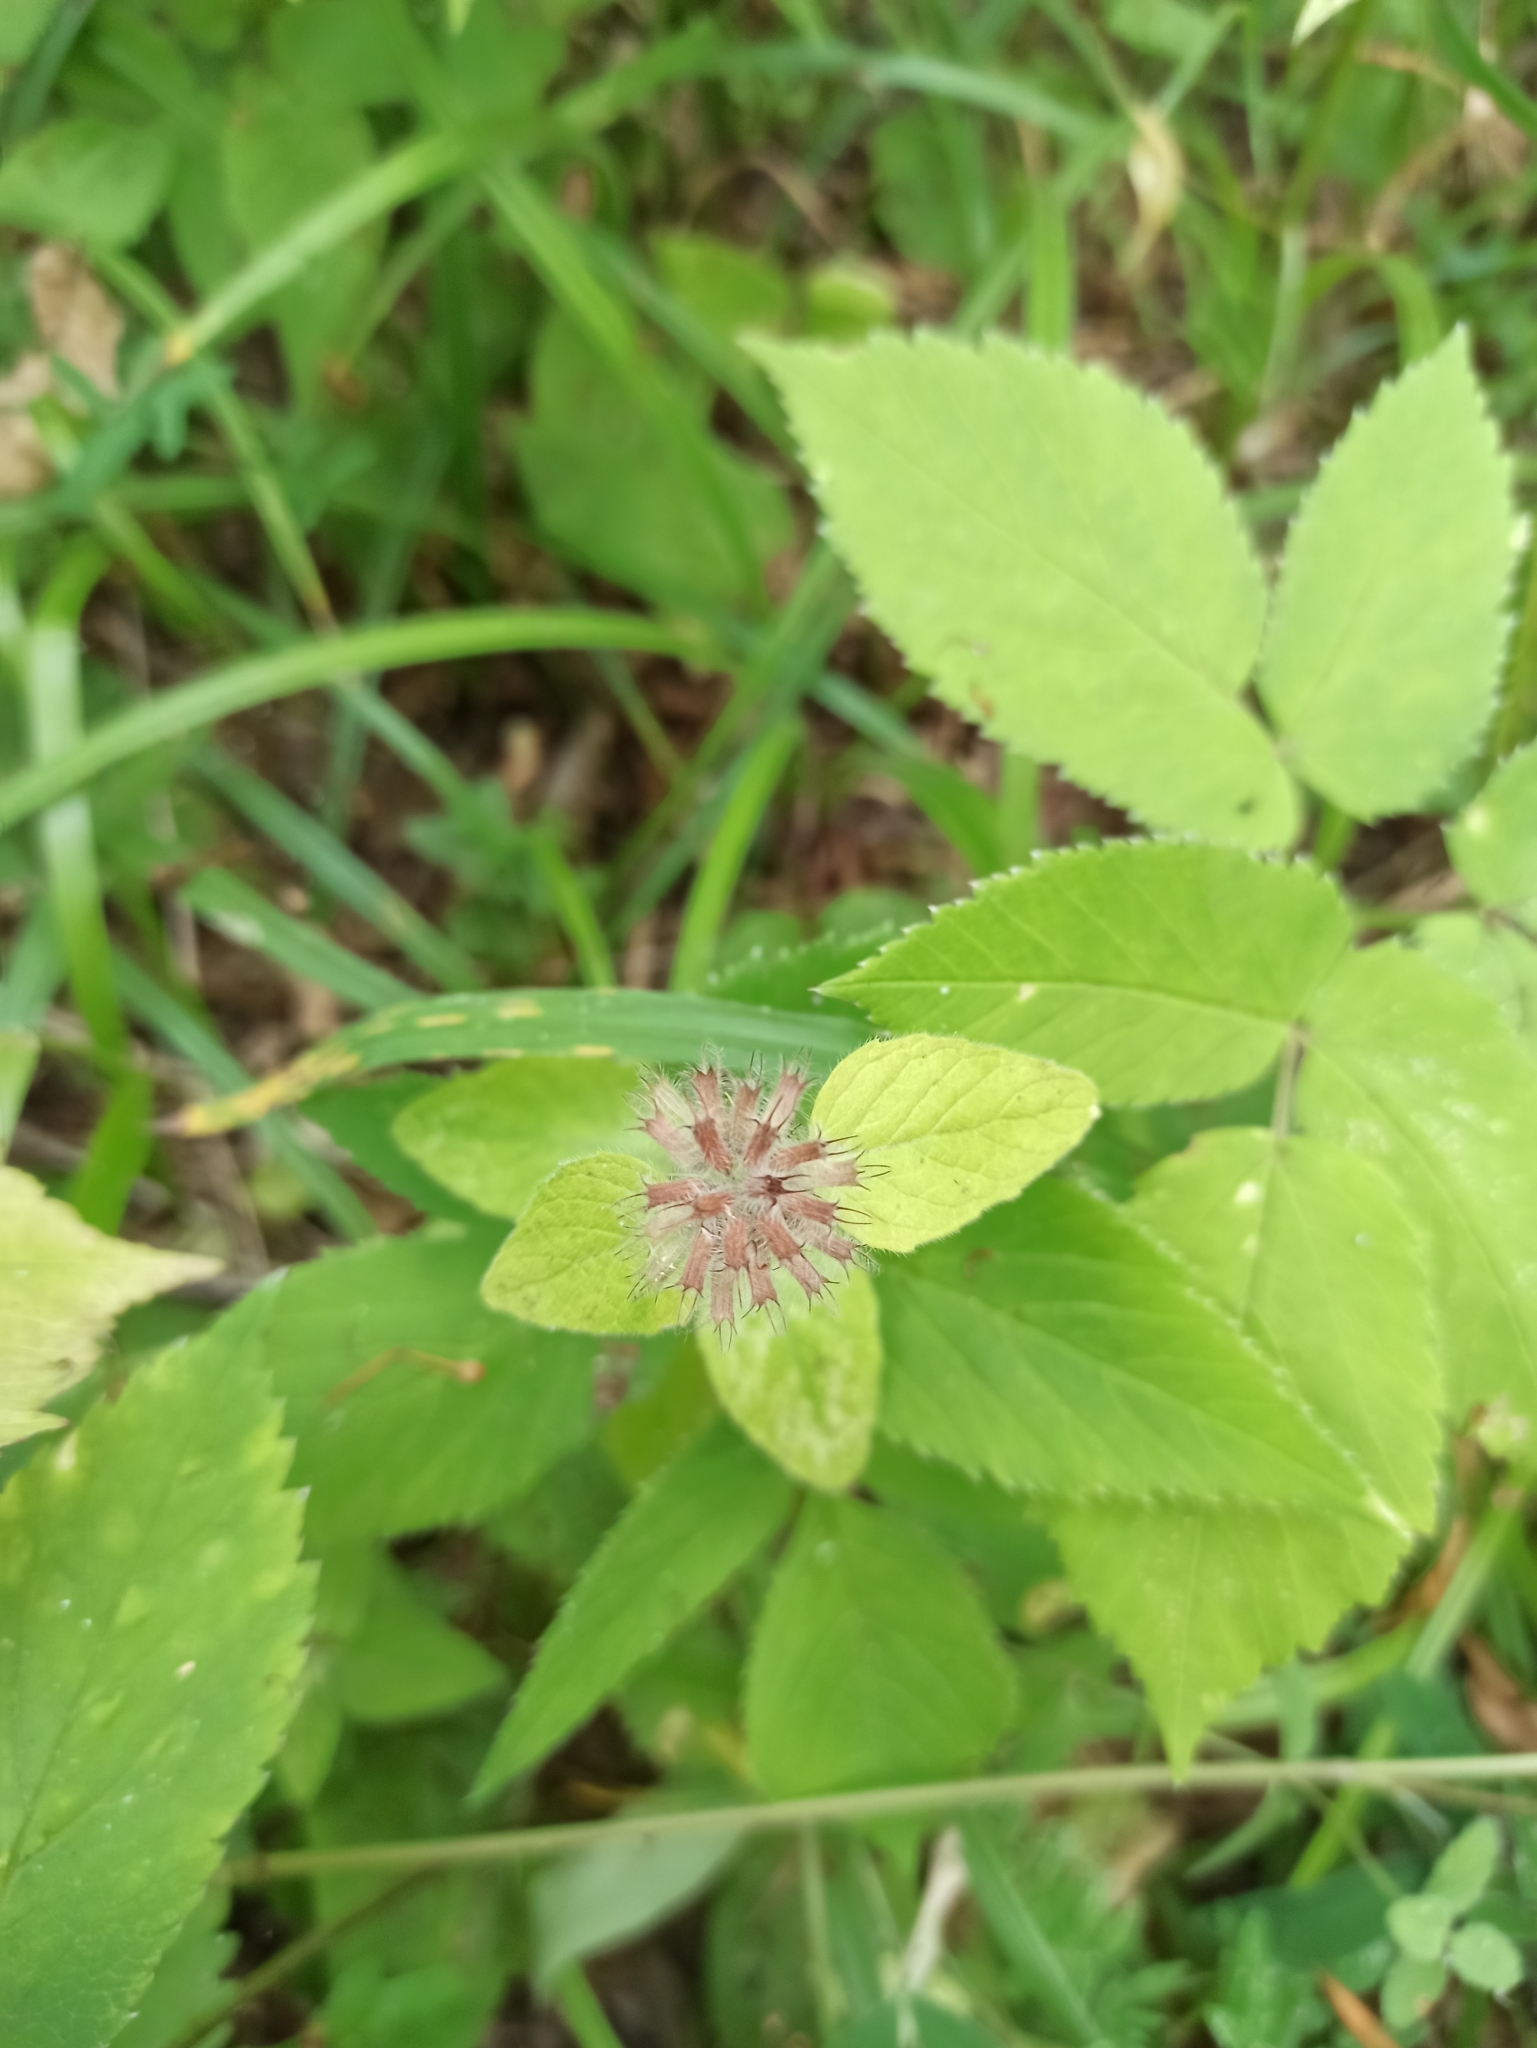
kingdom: Plantae
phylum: Tracheophyta
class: Magnoliopsida
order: Lamiales
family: Lamiaceae
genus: Clinopodium
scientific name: Clinopodium vulgare
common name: Wild basil
